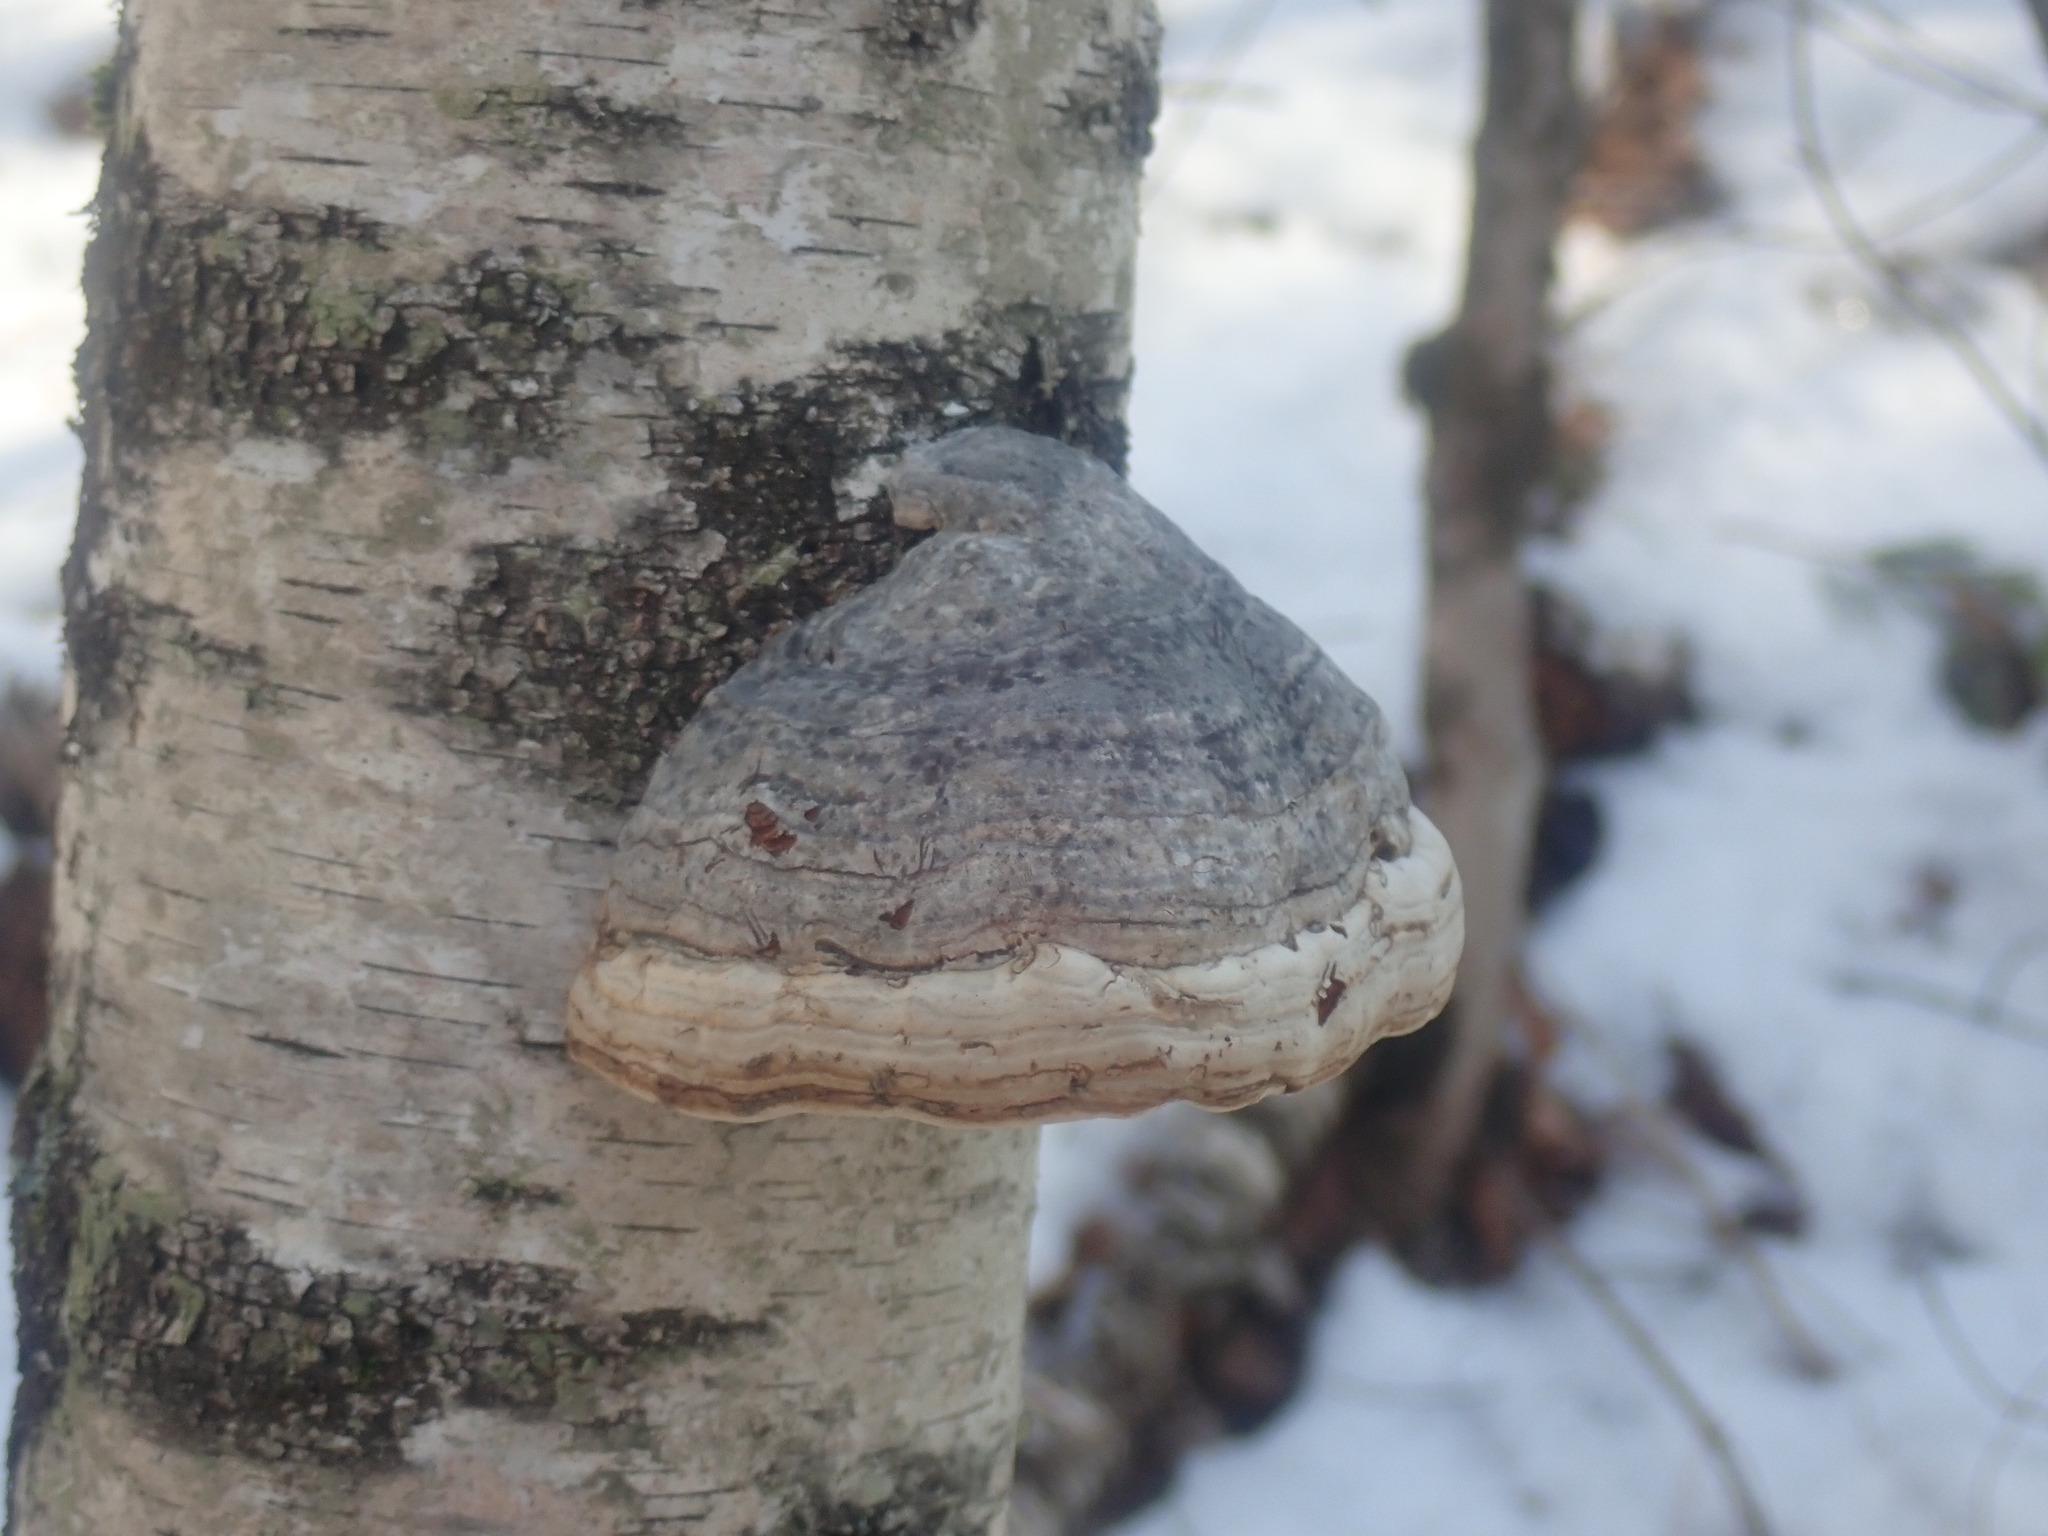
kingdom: Fungi
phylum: Basidiomycota
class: Agaricomycetes
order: Polyporales
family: Polyporaceae
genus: Fomes
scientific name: Fomes fomentarius
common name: Hoof fungus
